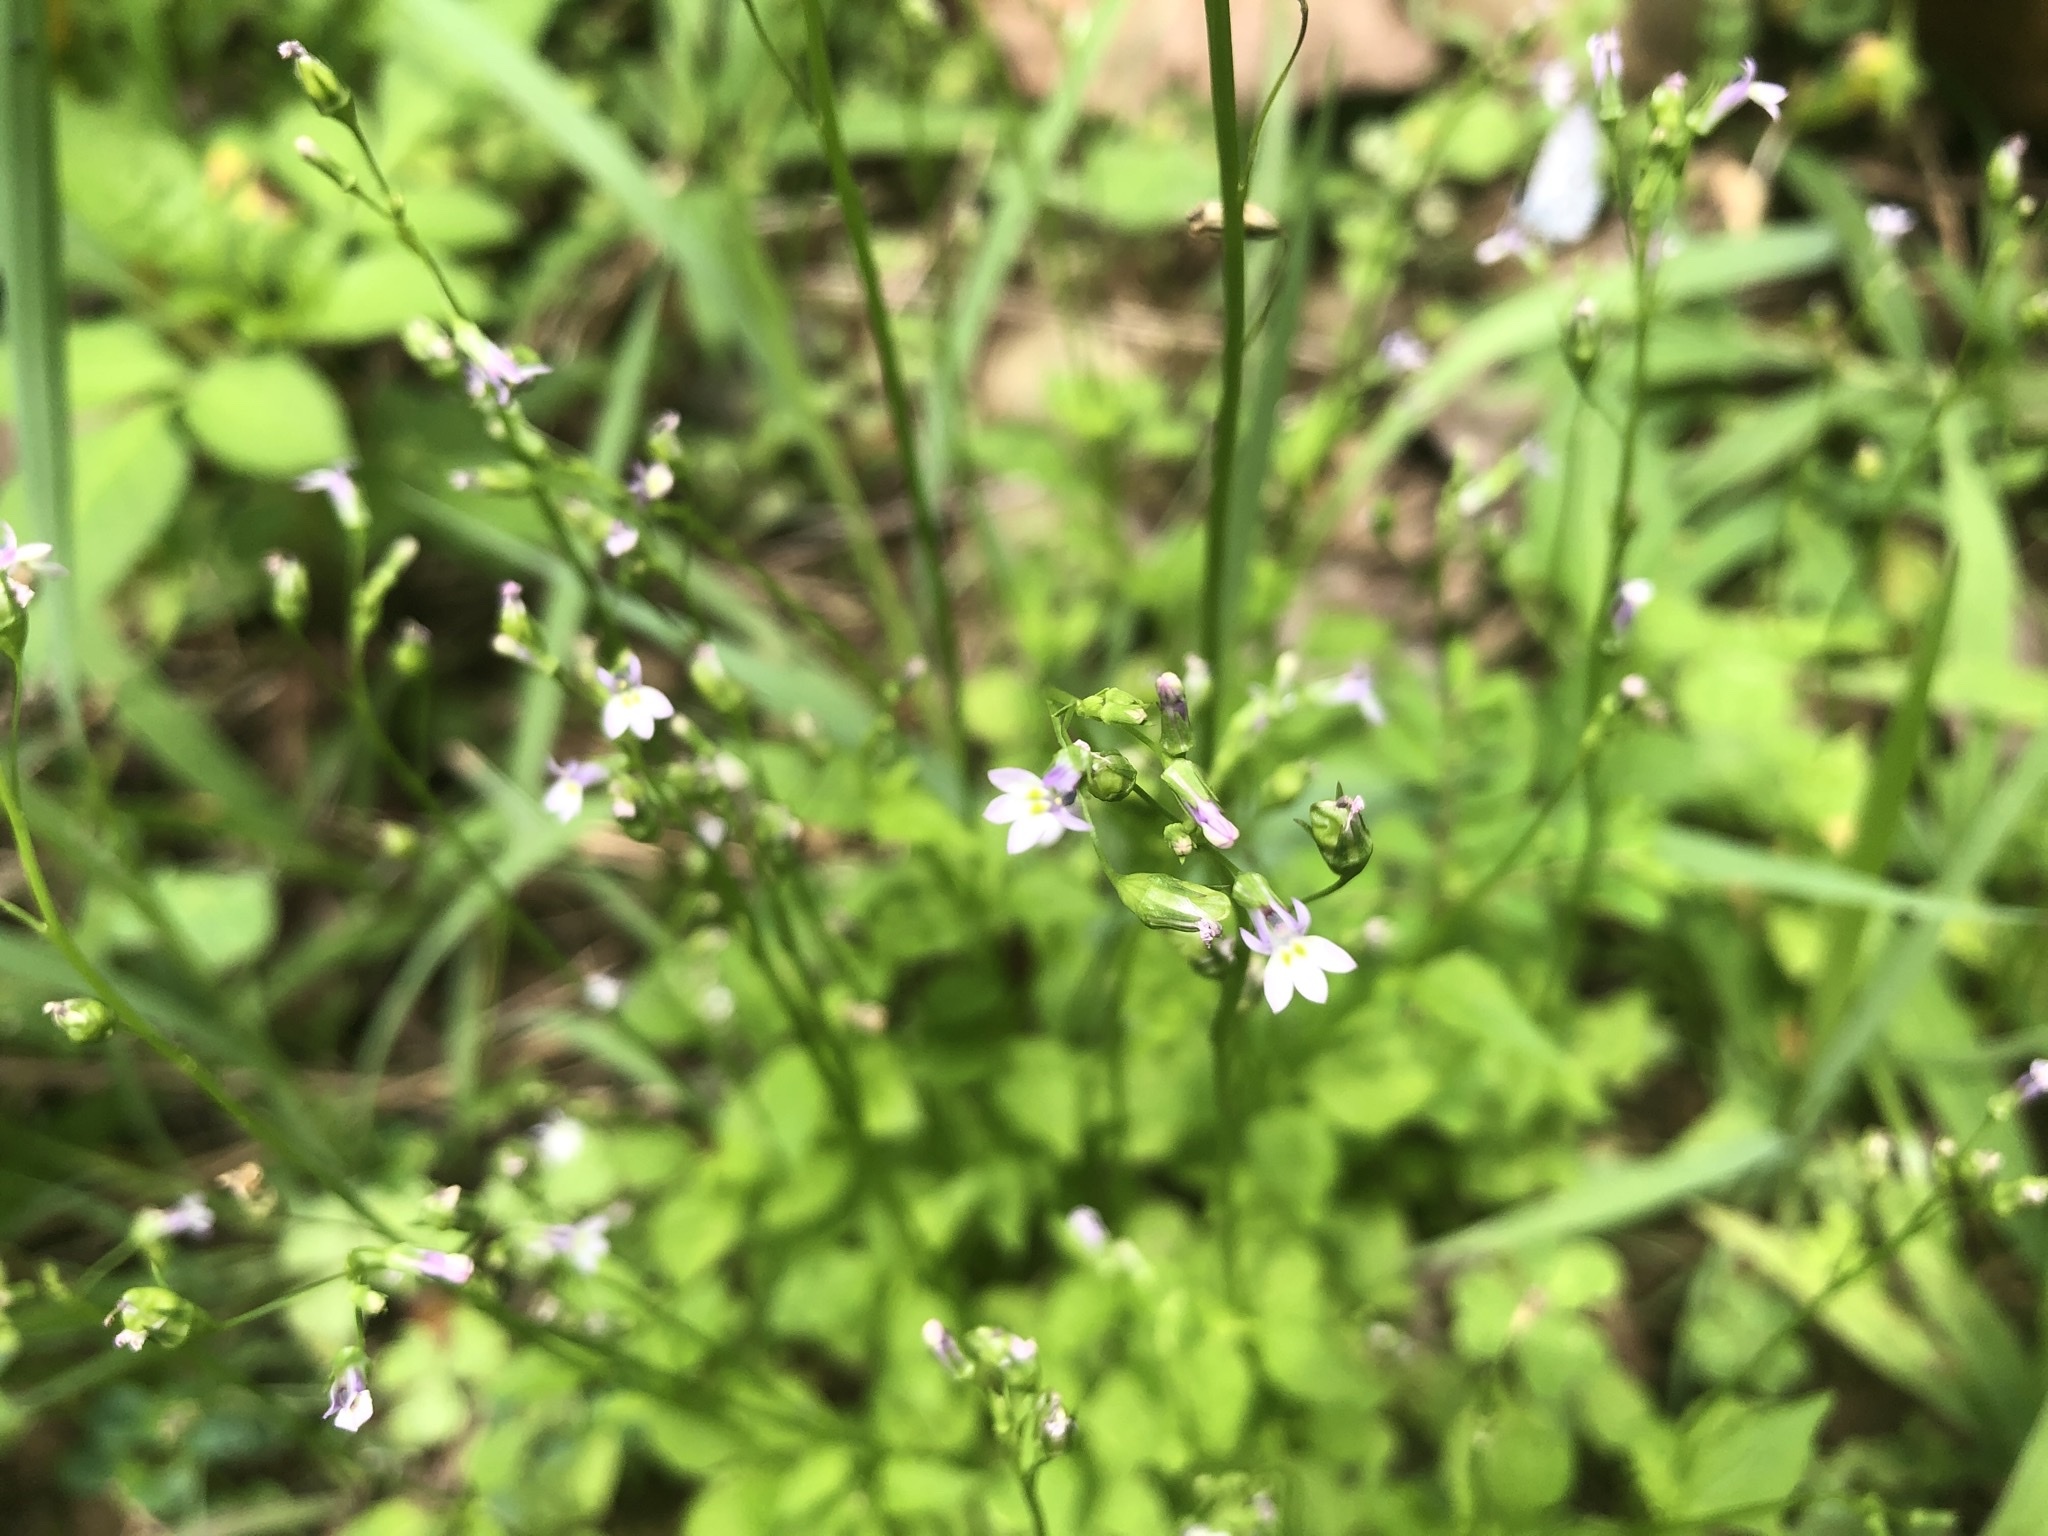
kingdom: Plantae
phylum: Tracheophyta
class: Magnoliopsida
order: Asterales
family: Campanulaceae
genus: Lobelia
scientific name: Lobelia cliffortiana
